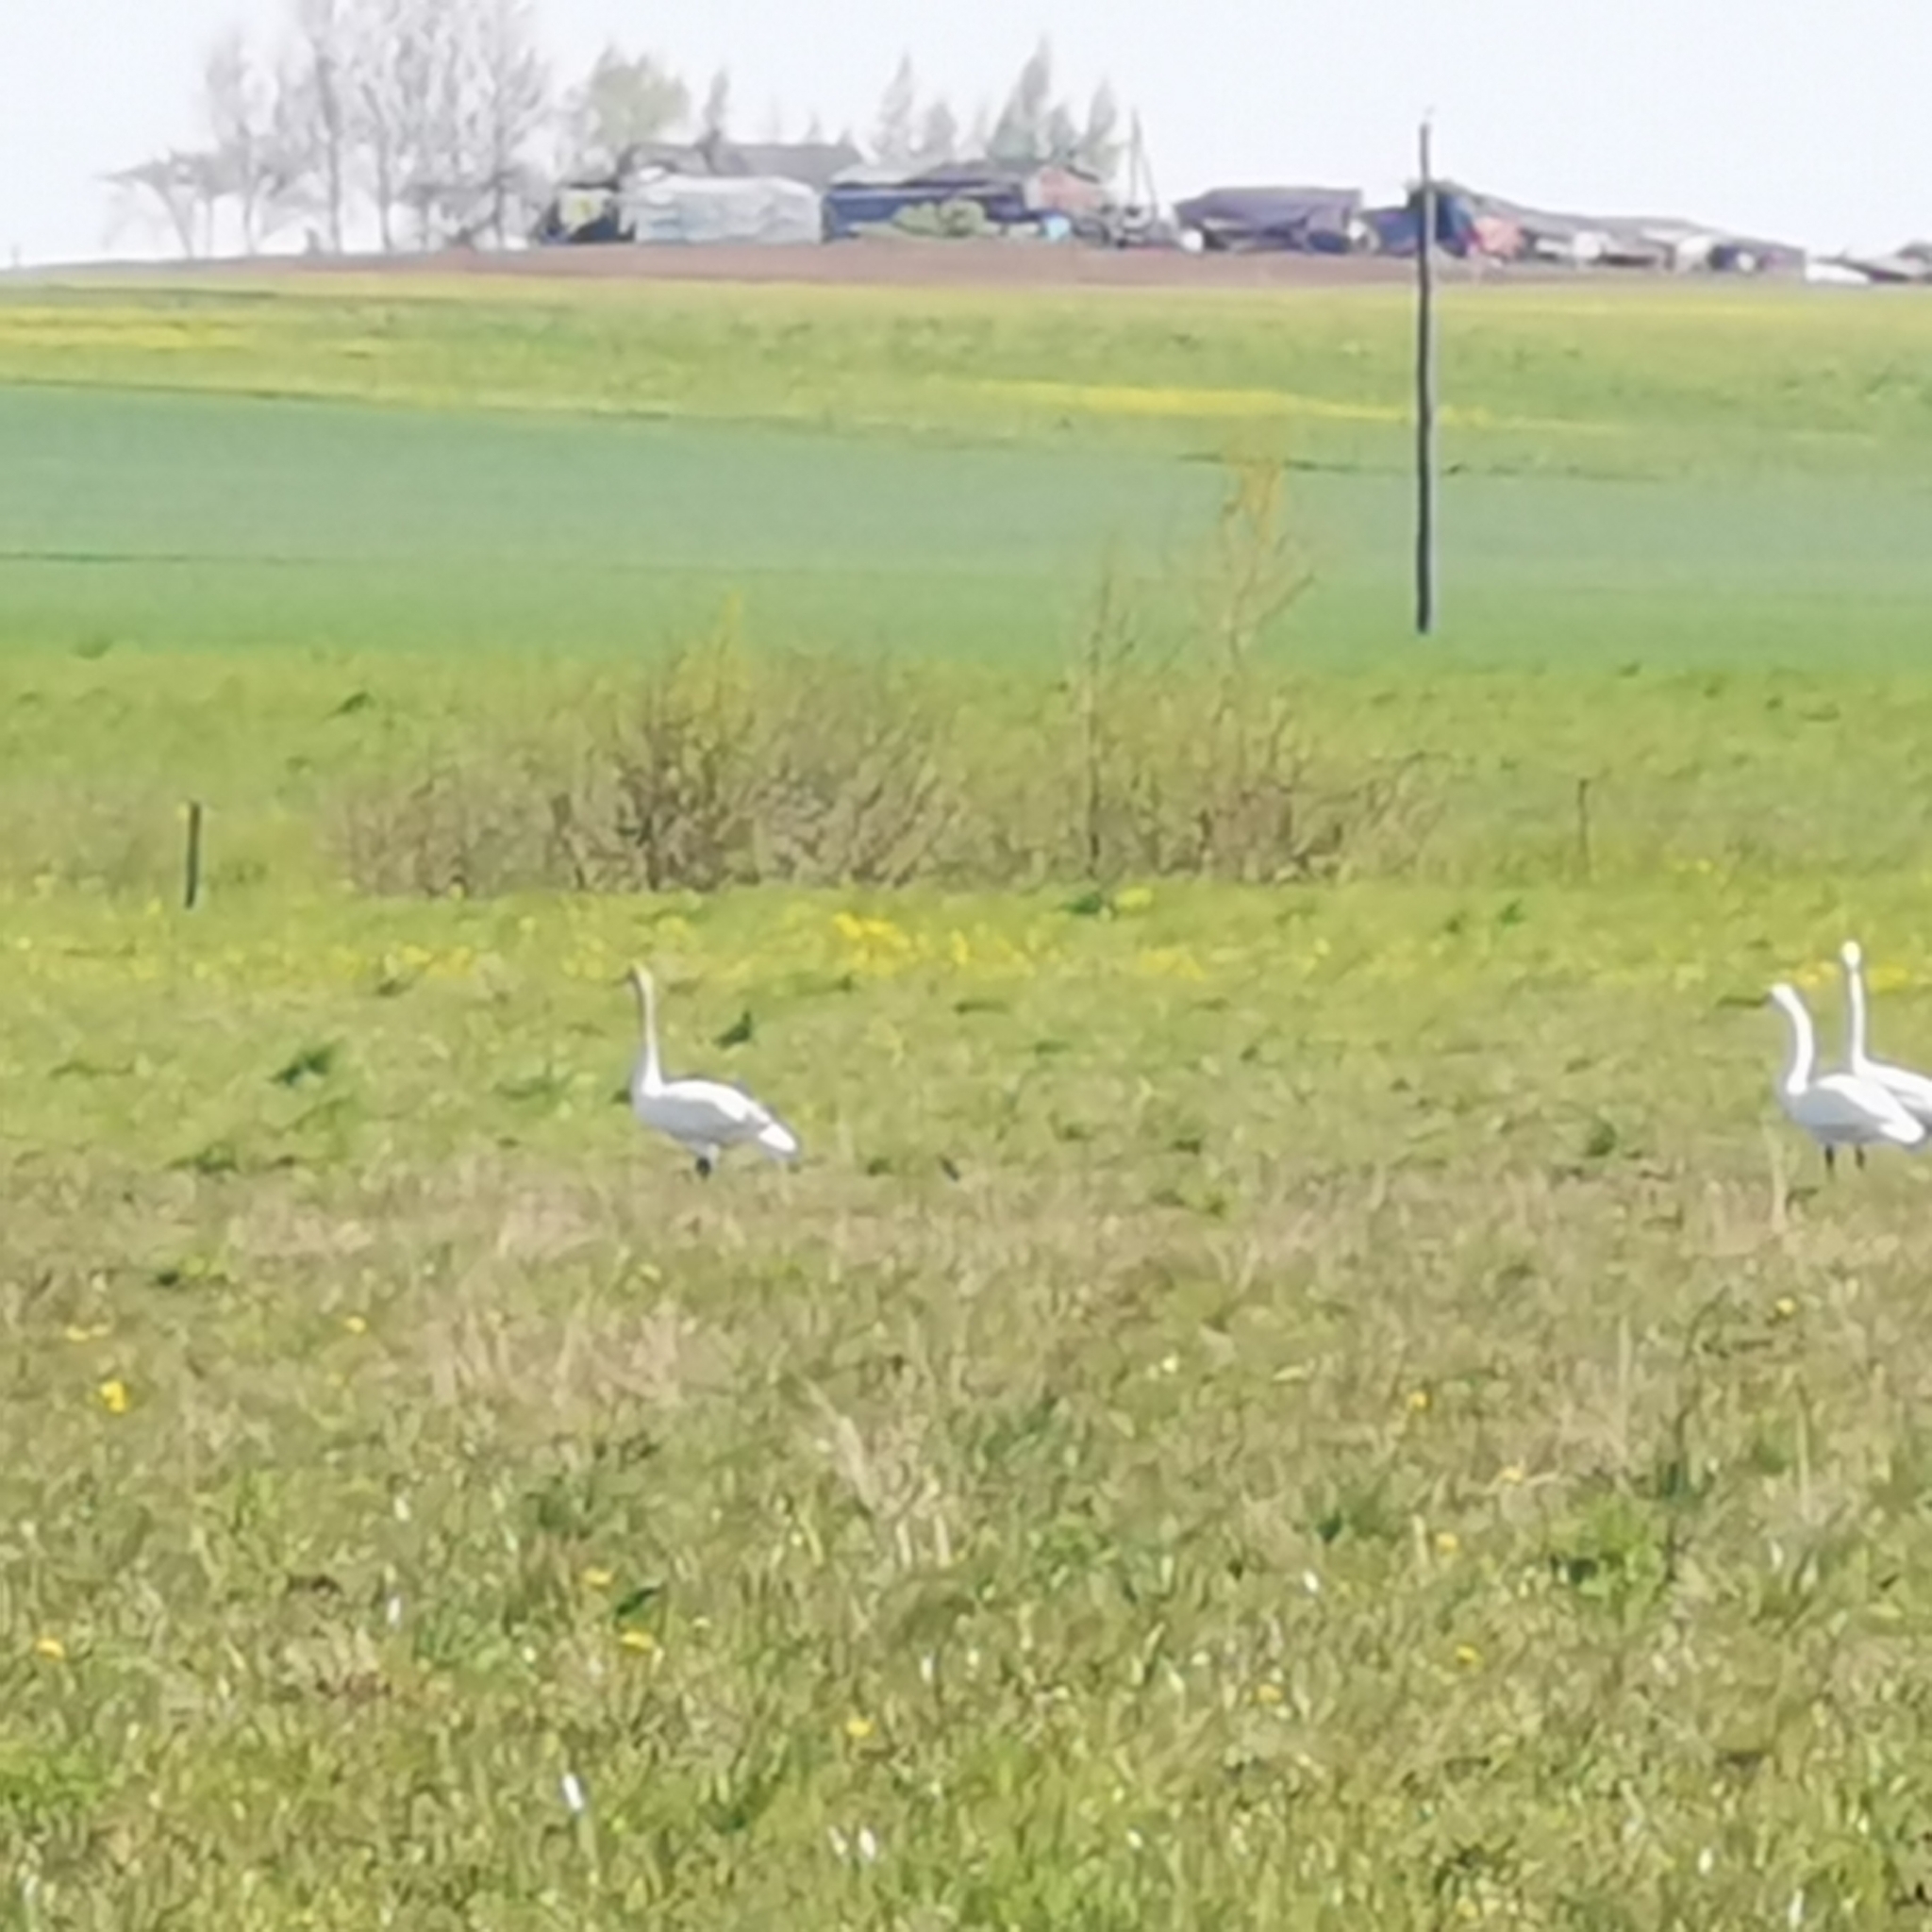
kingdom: Animalia
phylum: Chordata
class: Aves
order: Anseriformes
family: Anatidae
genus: Cygnus
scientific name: Cygnus cygnus
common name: Whooper swan
